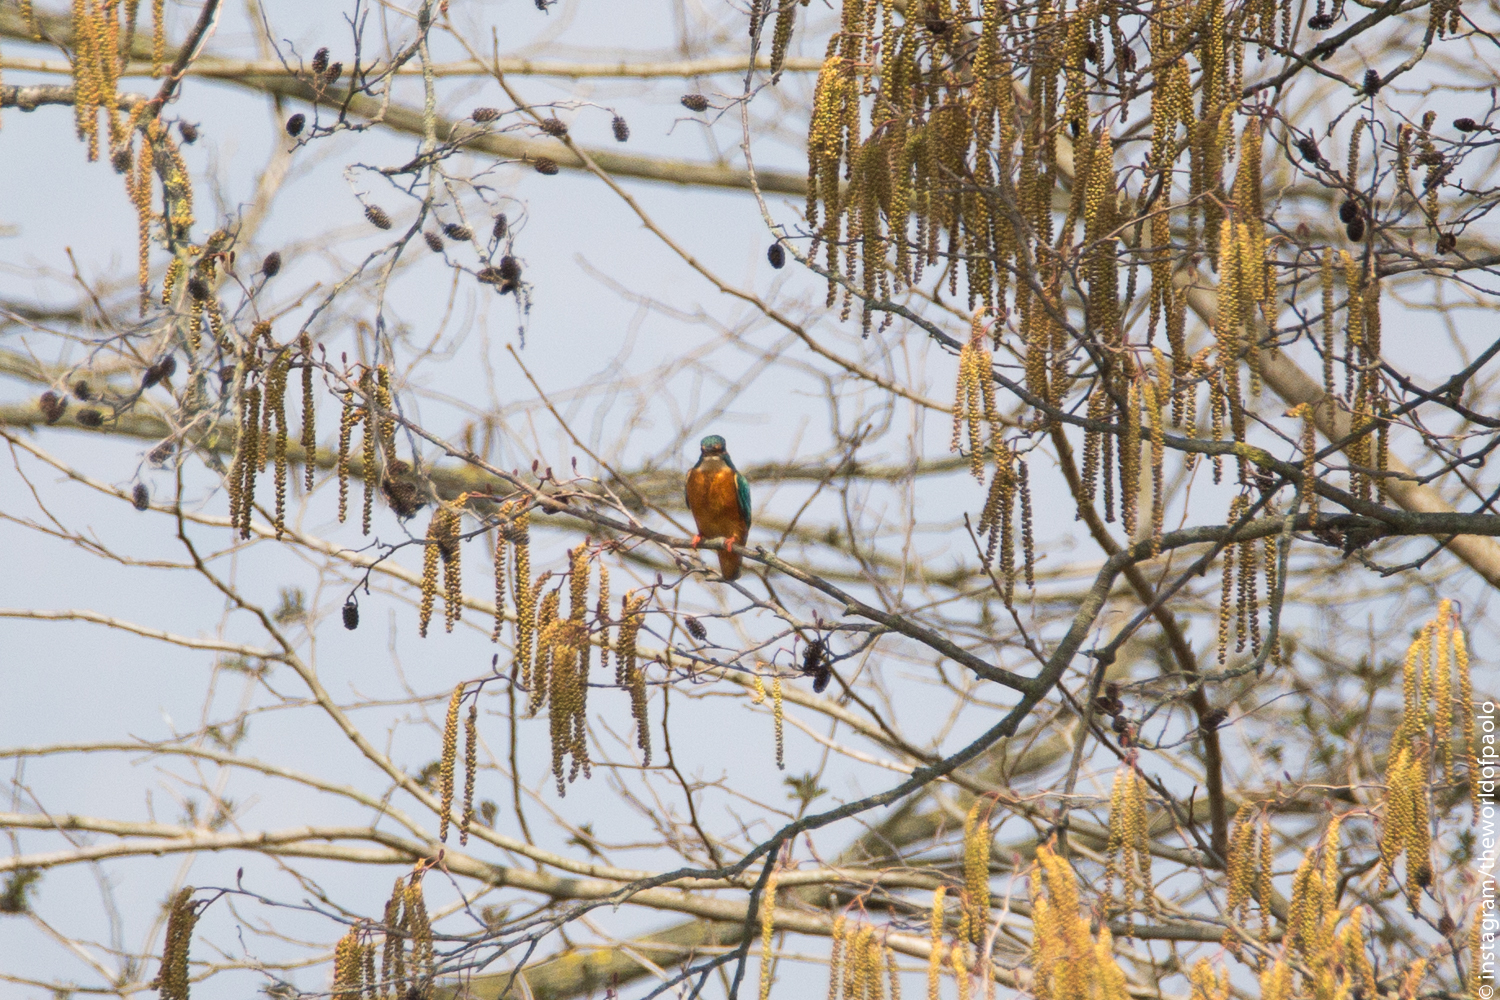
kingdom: Animalia
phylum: Chordata
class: Aves
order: Coraciiformes
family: Alcedinidae
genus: Alcedo
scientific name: Alcedo atthis
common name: Common kingfisher
